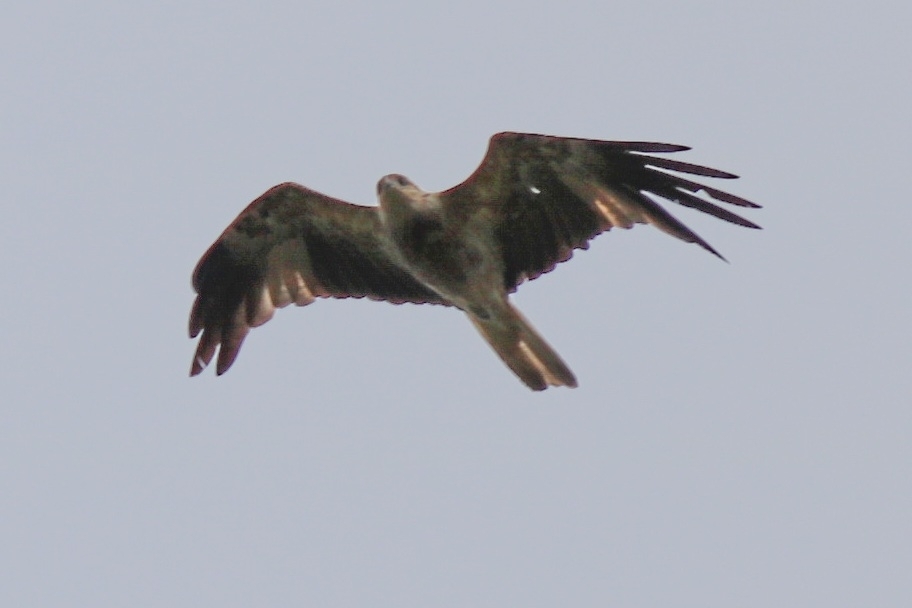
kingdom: Animalia
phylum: Chordata
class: Aves
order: Accipitriformes
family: Accipitridae
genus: Haliastur
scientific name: Haliastur sphenurus
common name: Whistling kite
